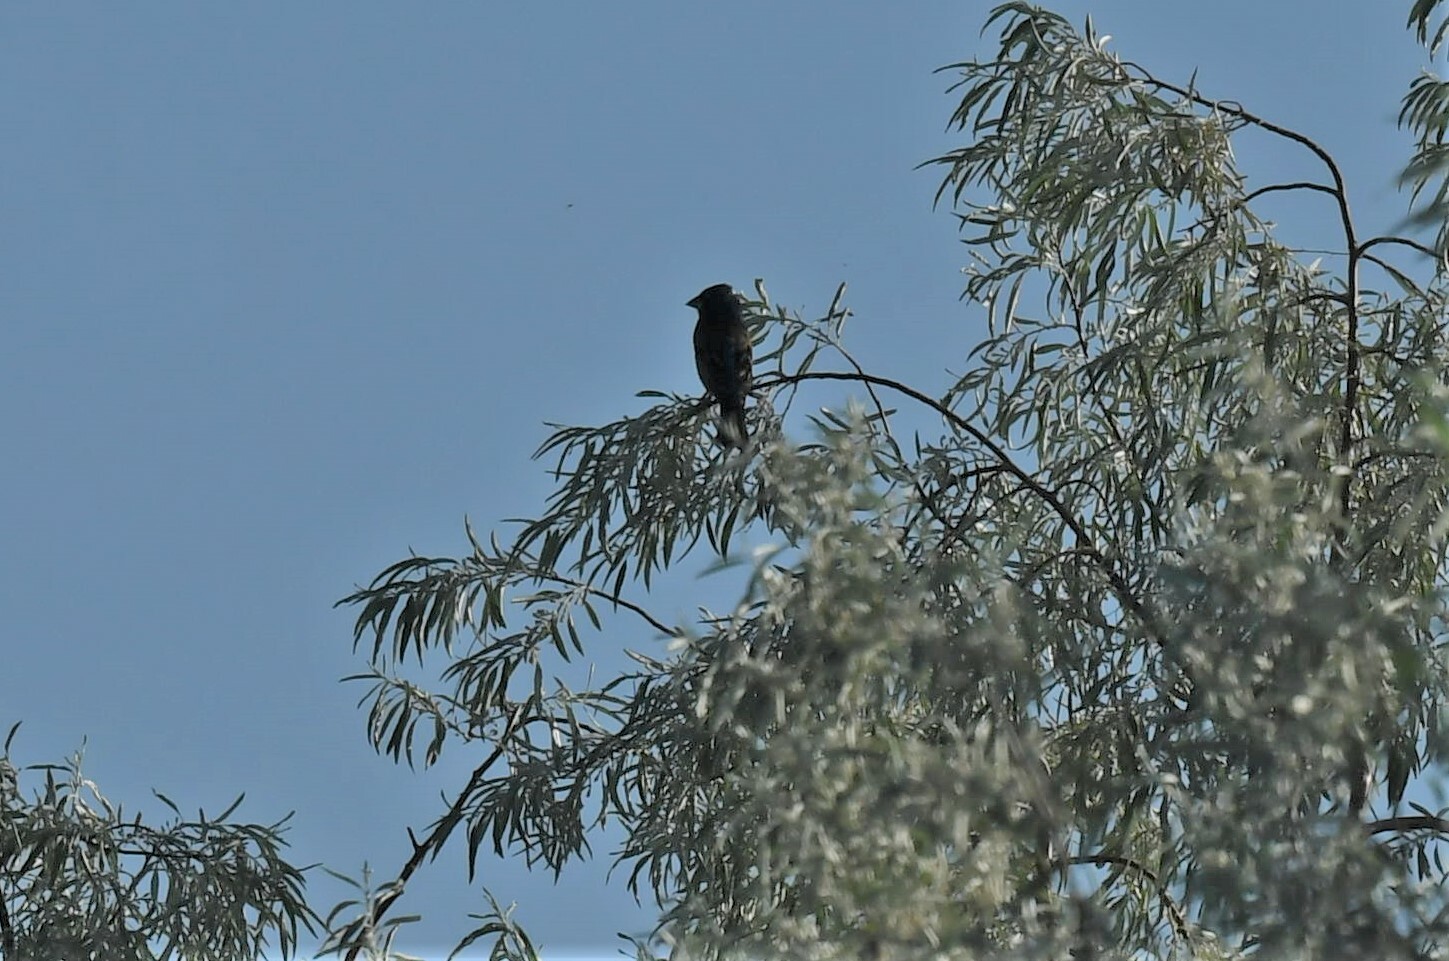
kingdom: Animalia
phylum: Chordata
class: Aves
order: Passeriformes
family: Cardinalidae
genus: Passerina
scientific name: Passerina caerulea
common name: Blue grosbeak
